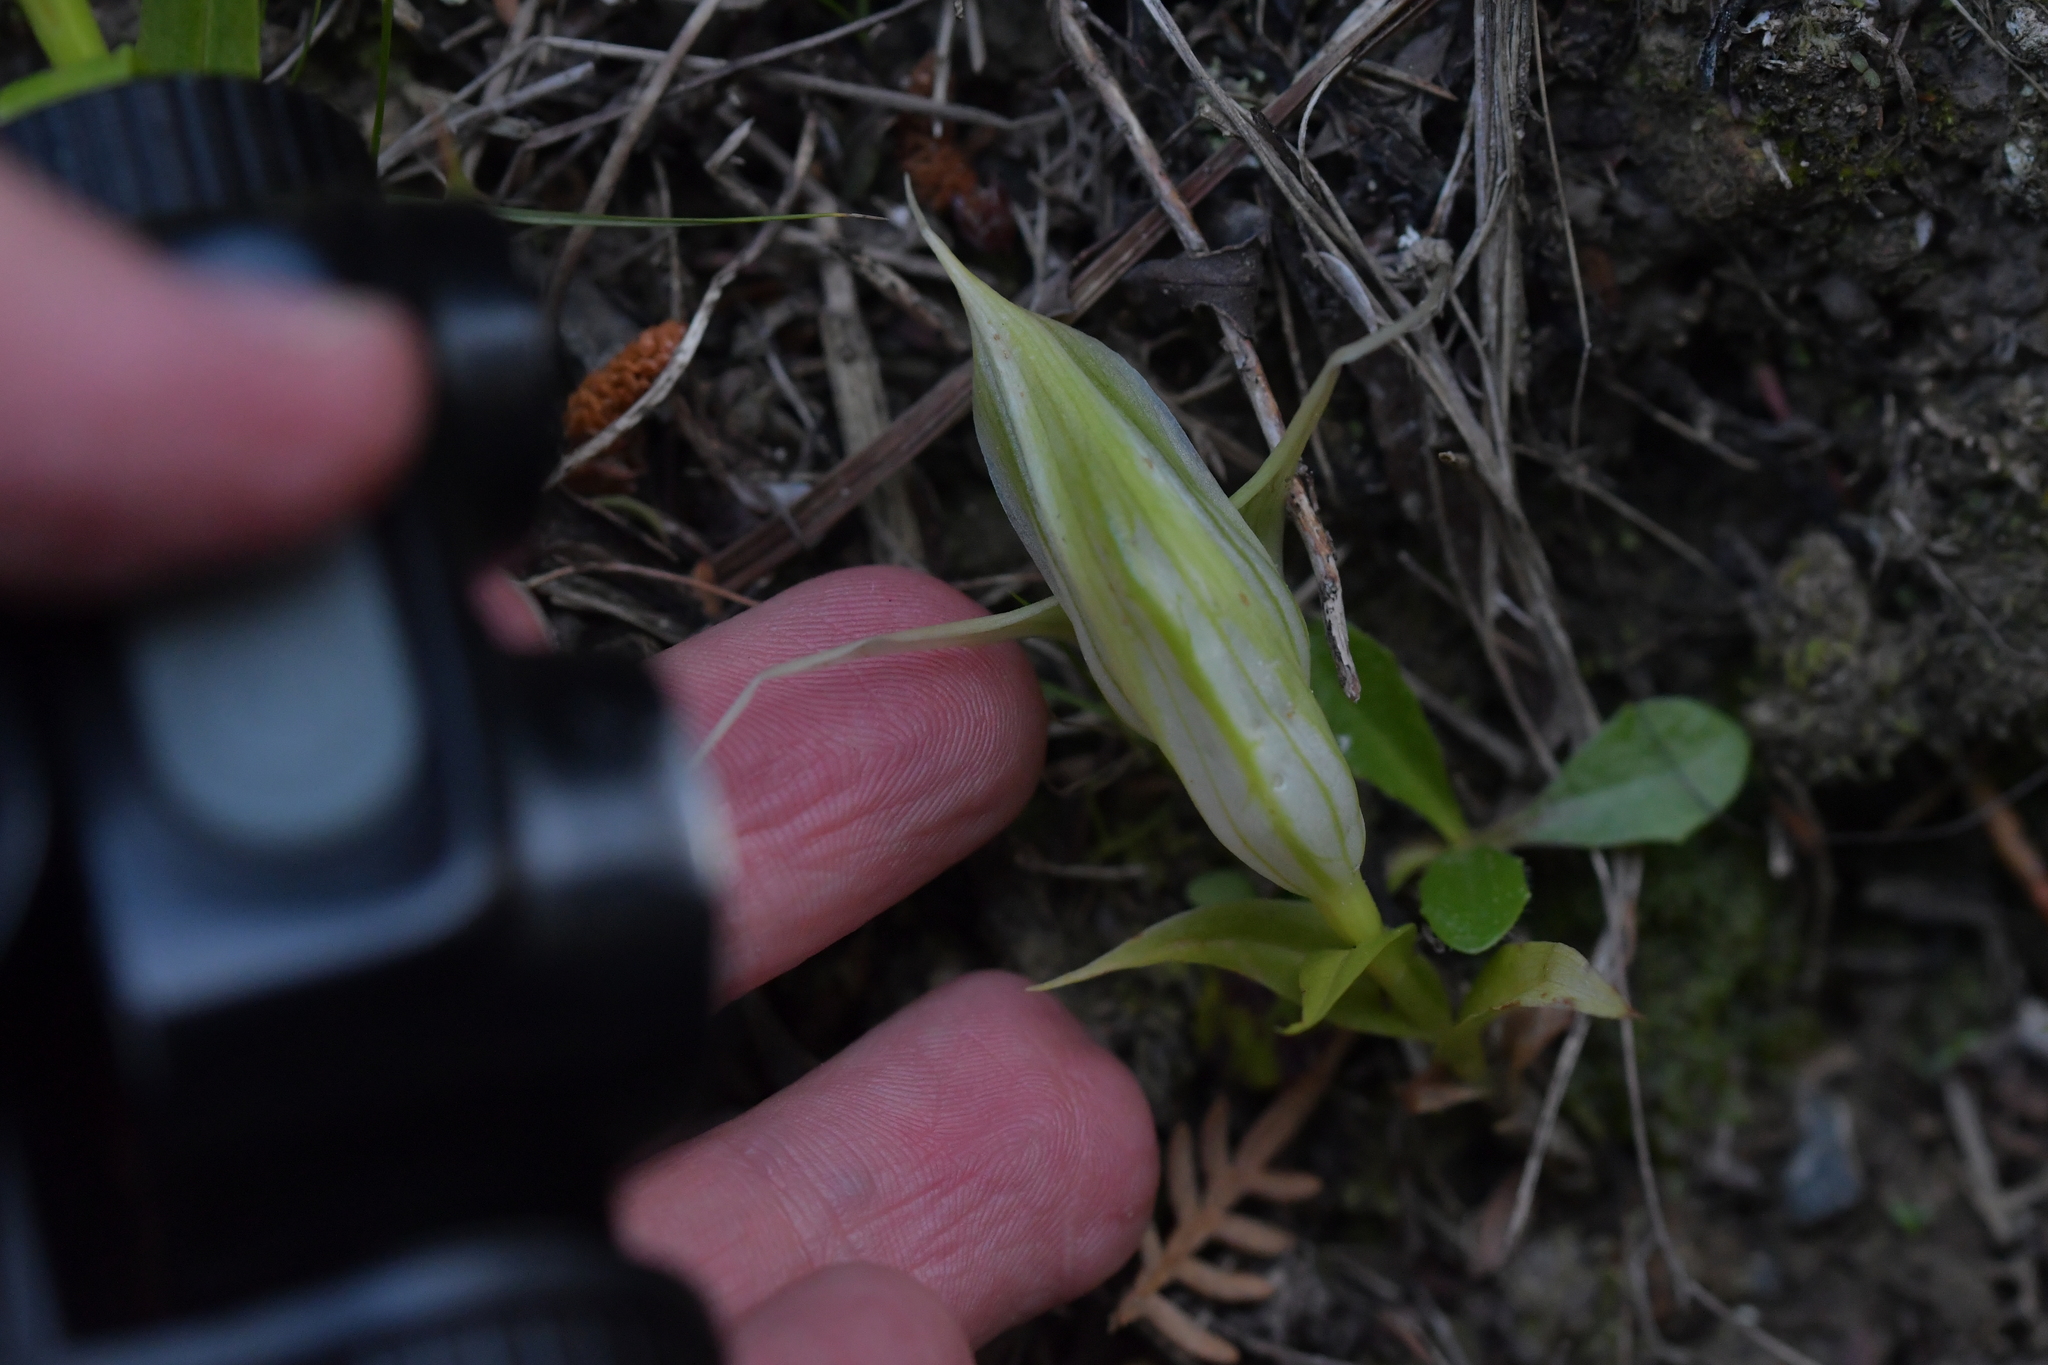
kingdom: Plantae
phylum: Tracheophyta
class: Liliopsida
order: Asparagales
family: Orchidaceae
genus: Pterostylis
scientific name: Pterostylis banksii
